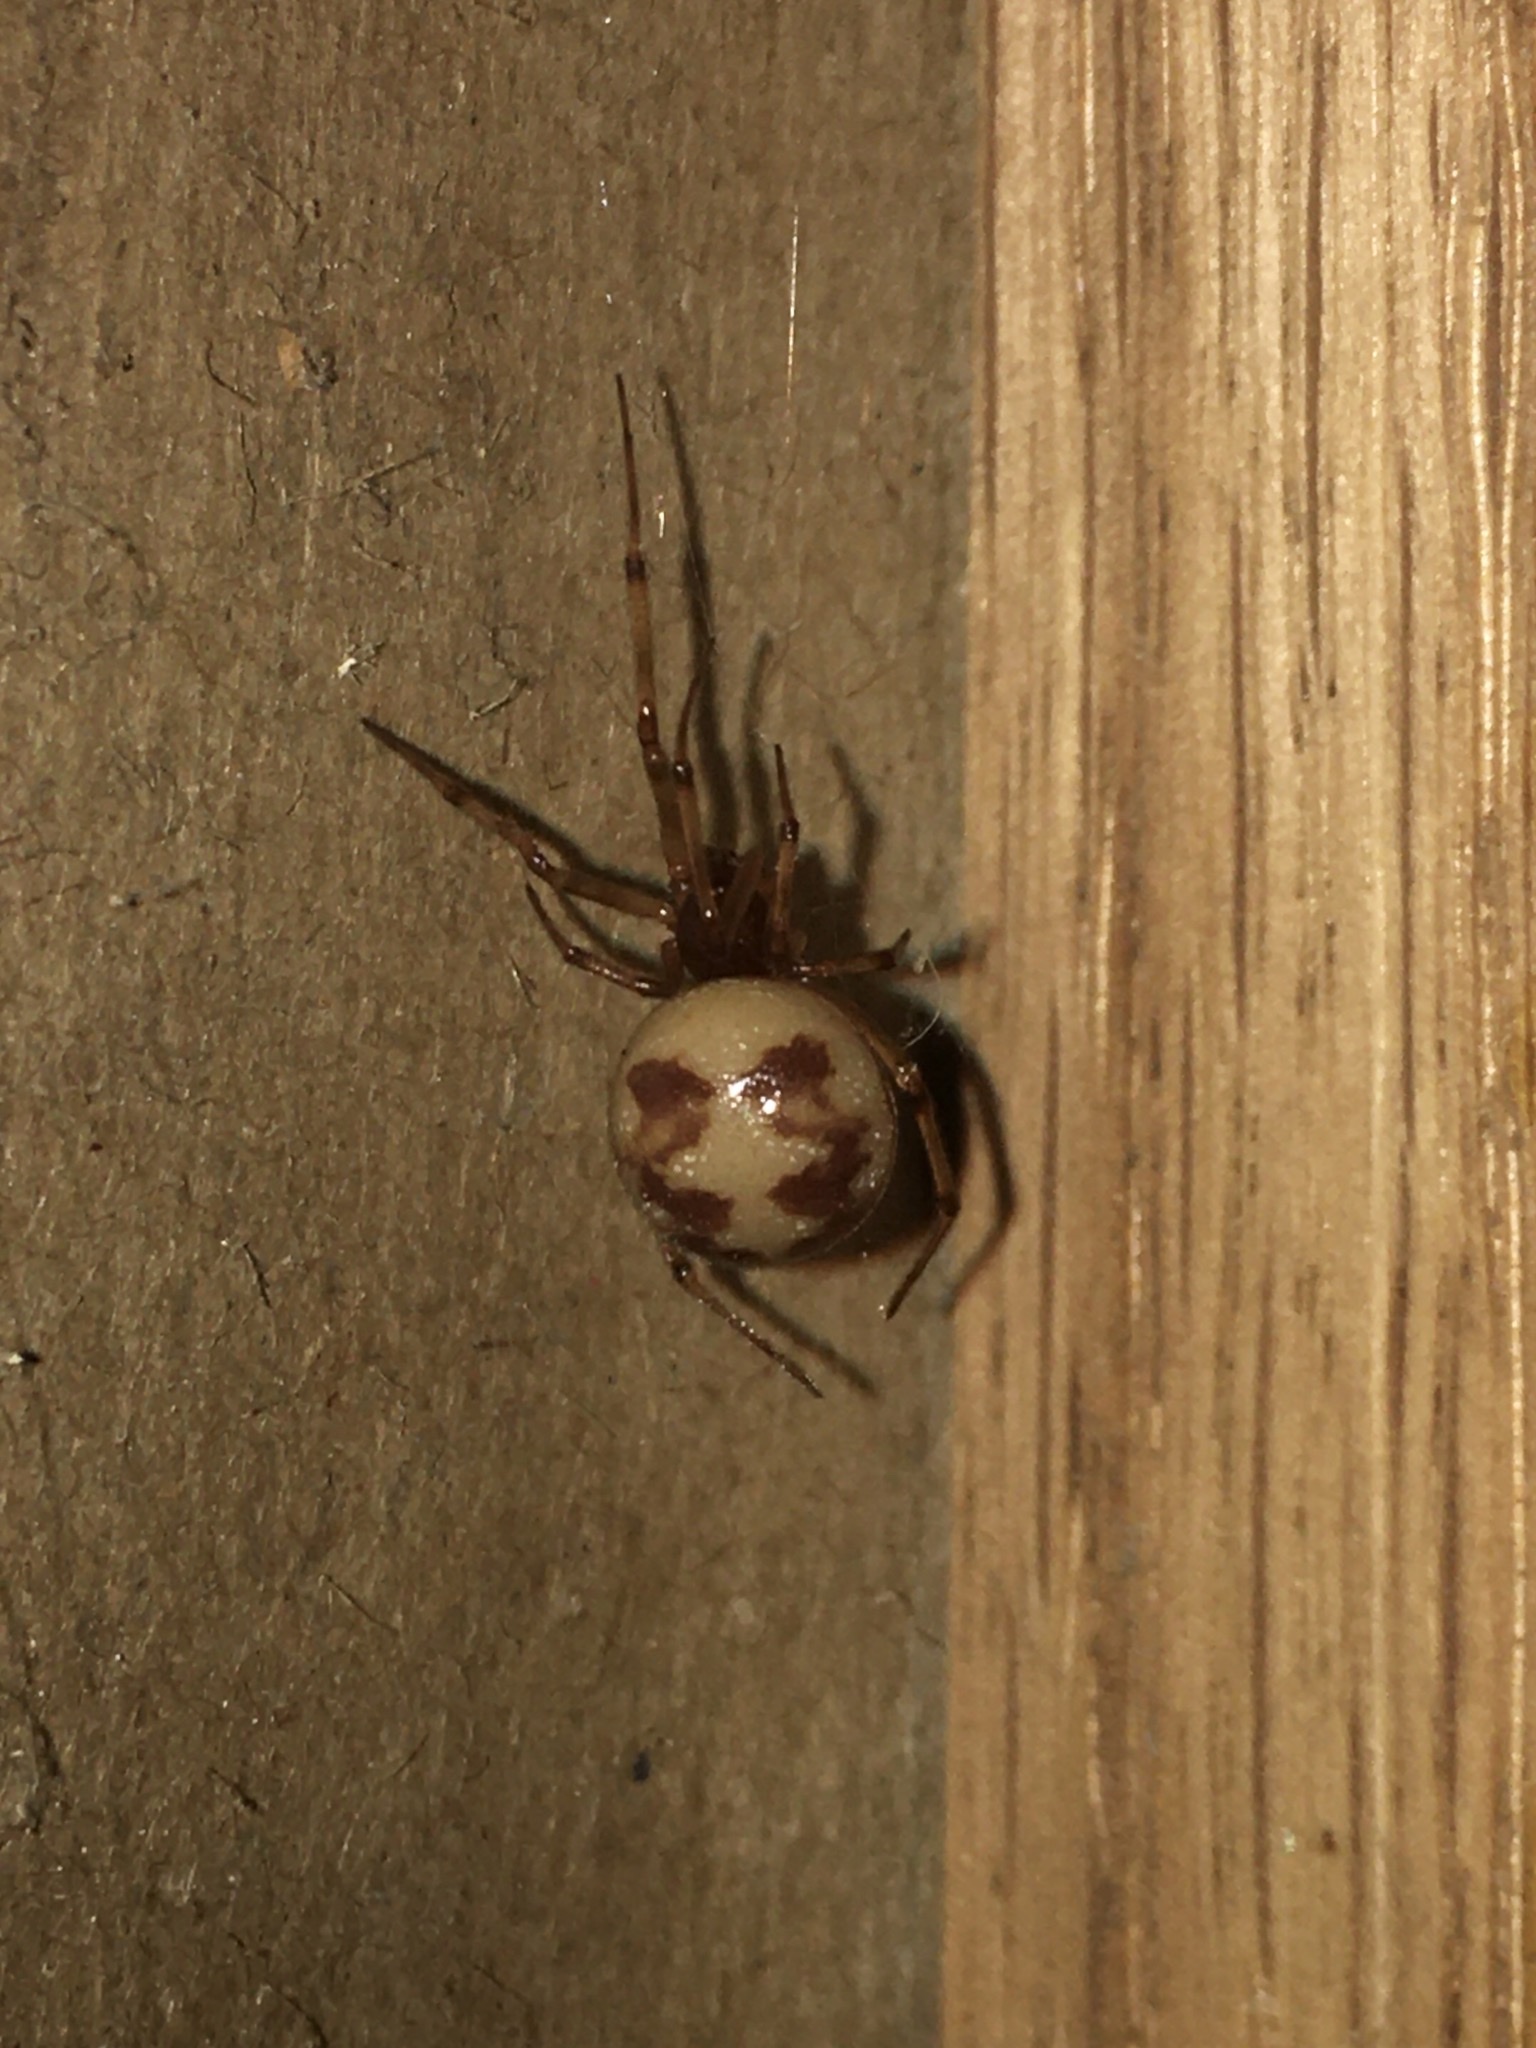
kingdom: Animalia
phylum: Arthropoda
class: Arachnida
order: Araneae
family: Theridiidae
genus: Steatoda
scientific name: Steatoda triangulosa
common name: Triangulate bud spider
